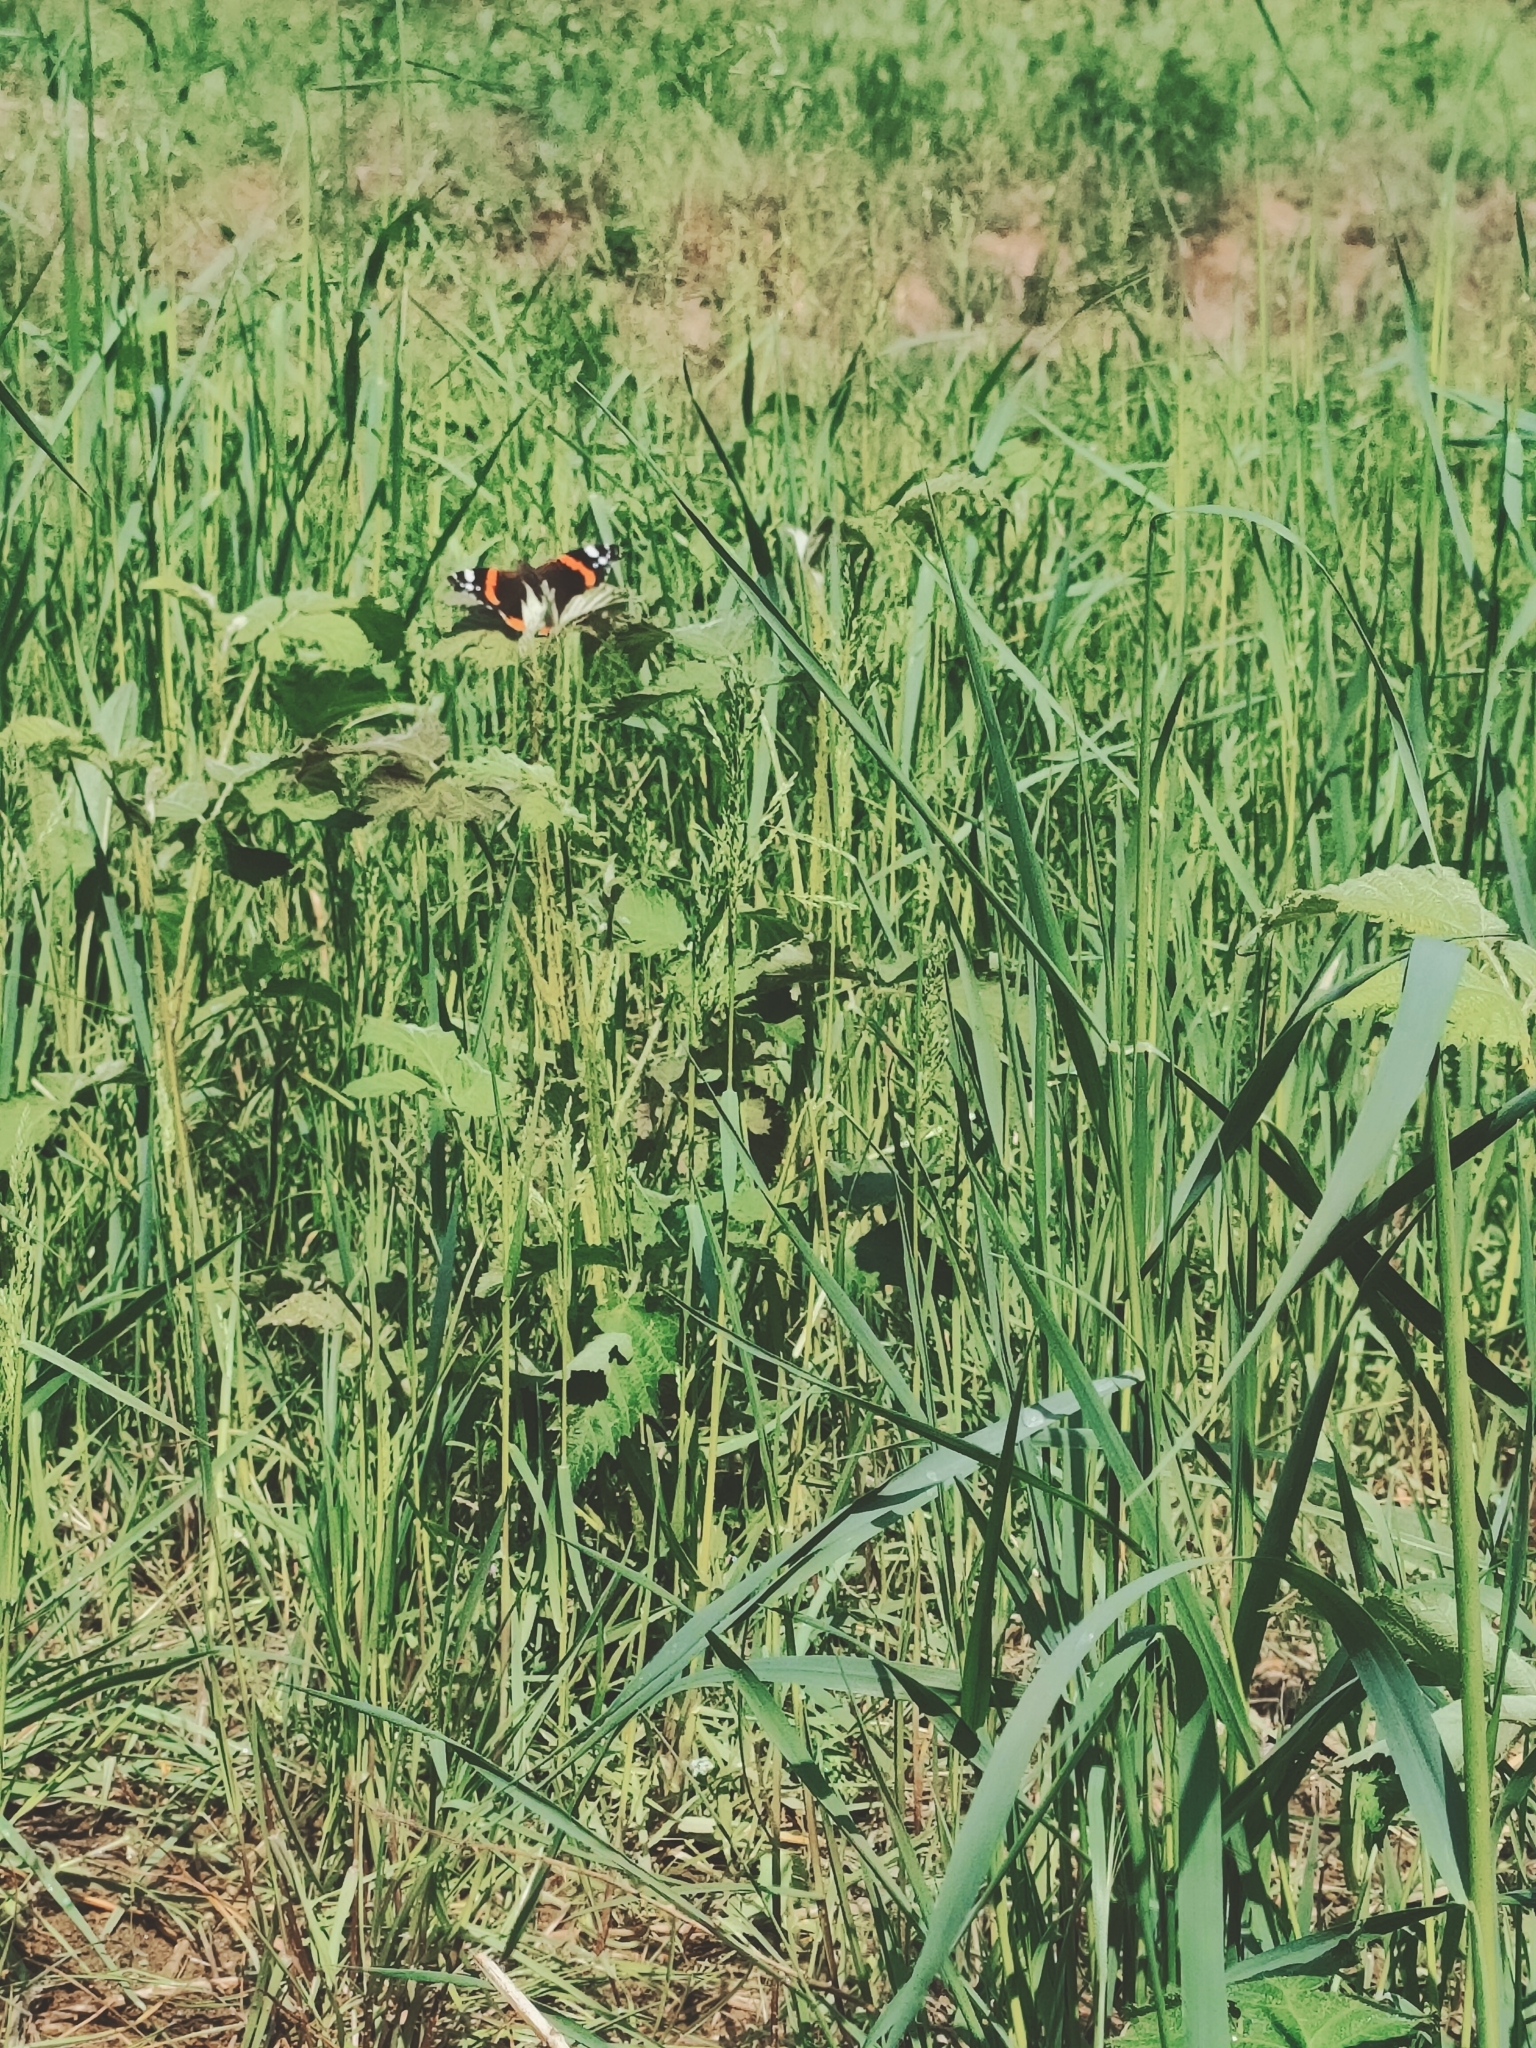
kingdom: Animalia
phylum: Arthropoda
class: Insecta
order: Lepidoptera
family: Nymphalidae
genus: Vanessa
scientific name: Vanessa atalanta
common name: Red admiral
